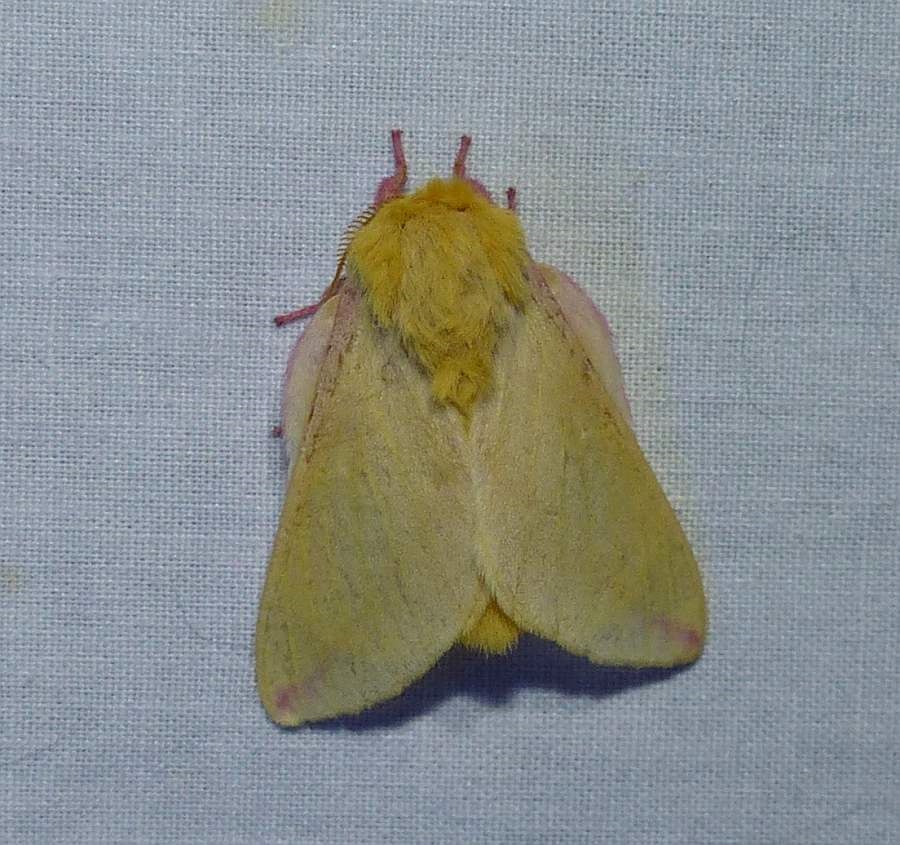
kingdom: Animalia
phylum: Arthropoda
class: Insecta
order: Lepidoptera
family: Saturniidae
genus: Dryocampa
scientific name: Dryocampa rubicunda
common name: Rosy maple moth
